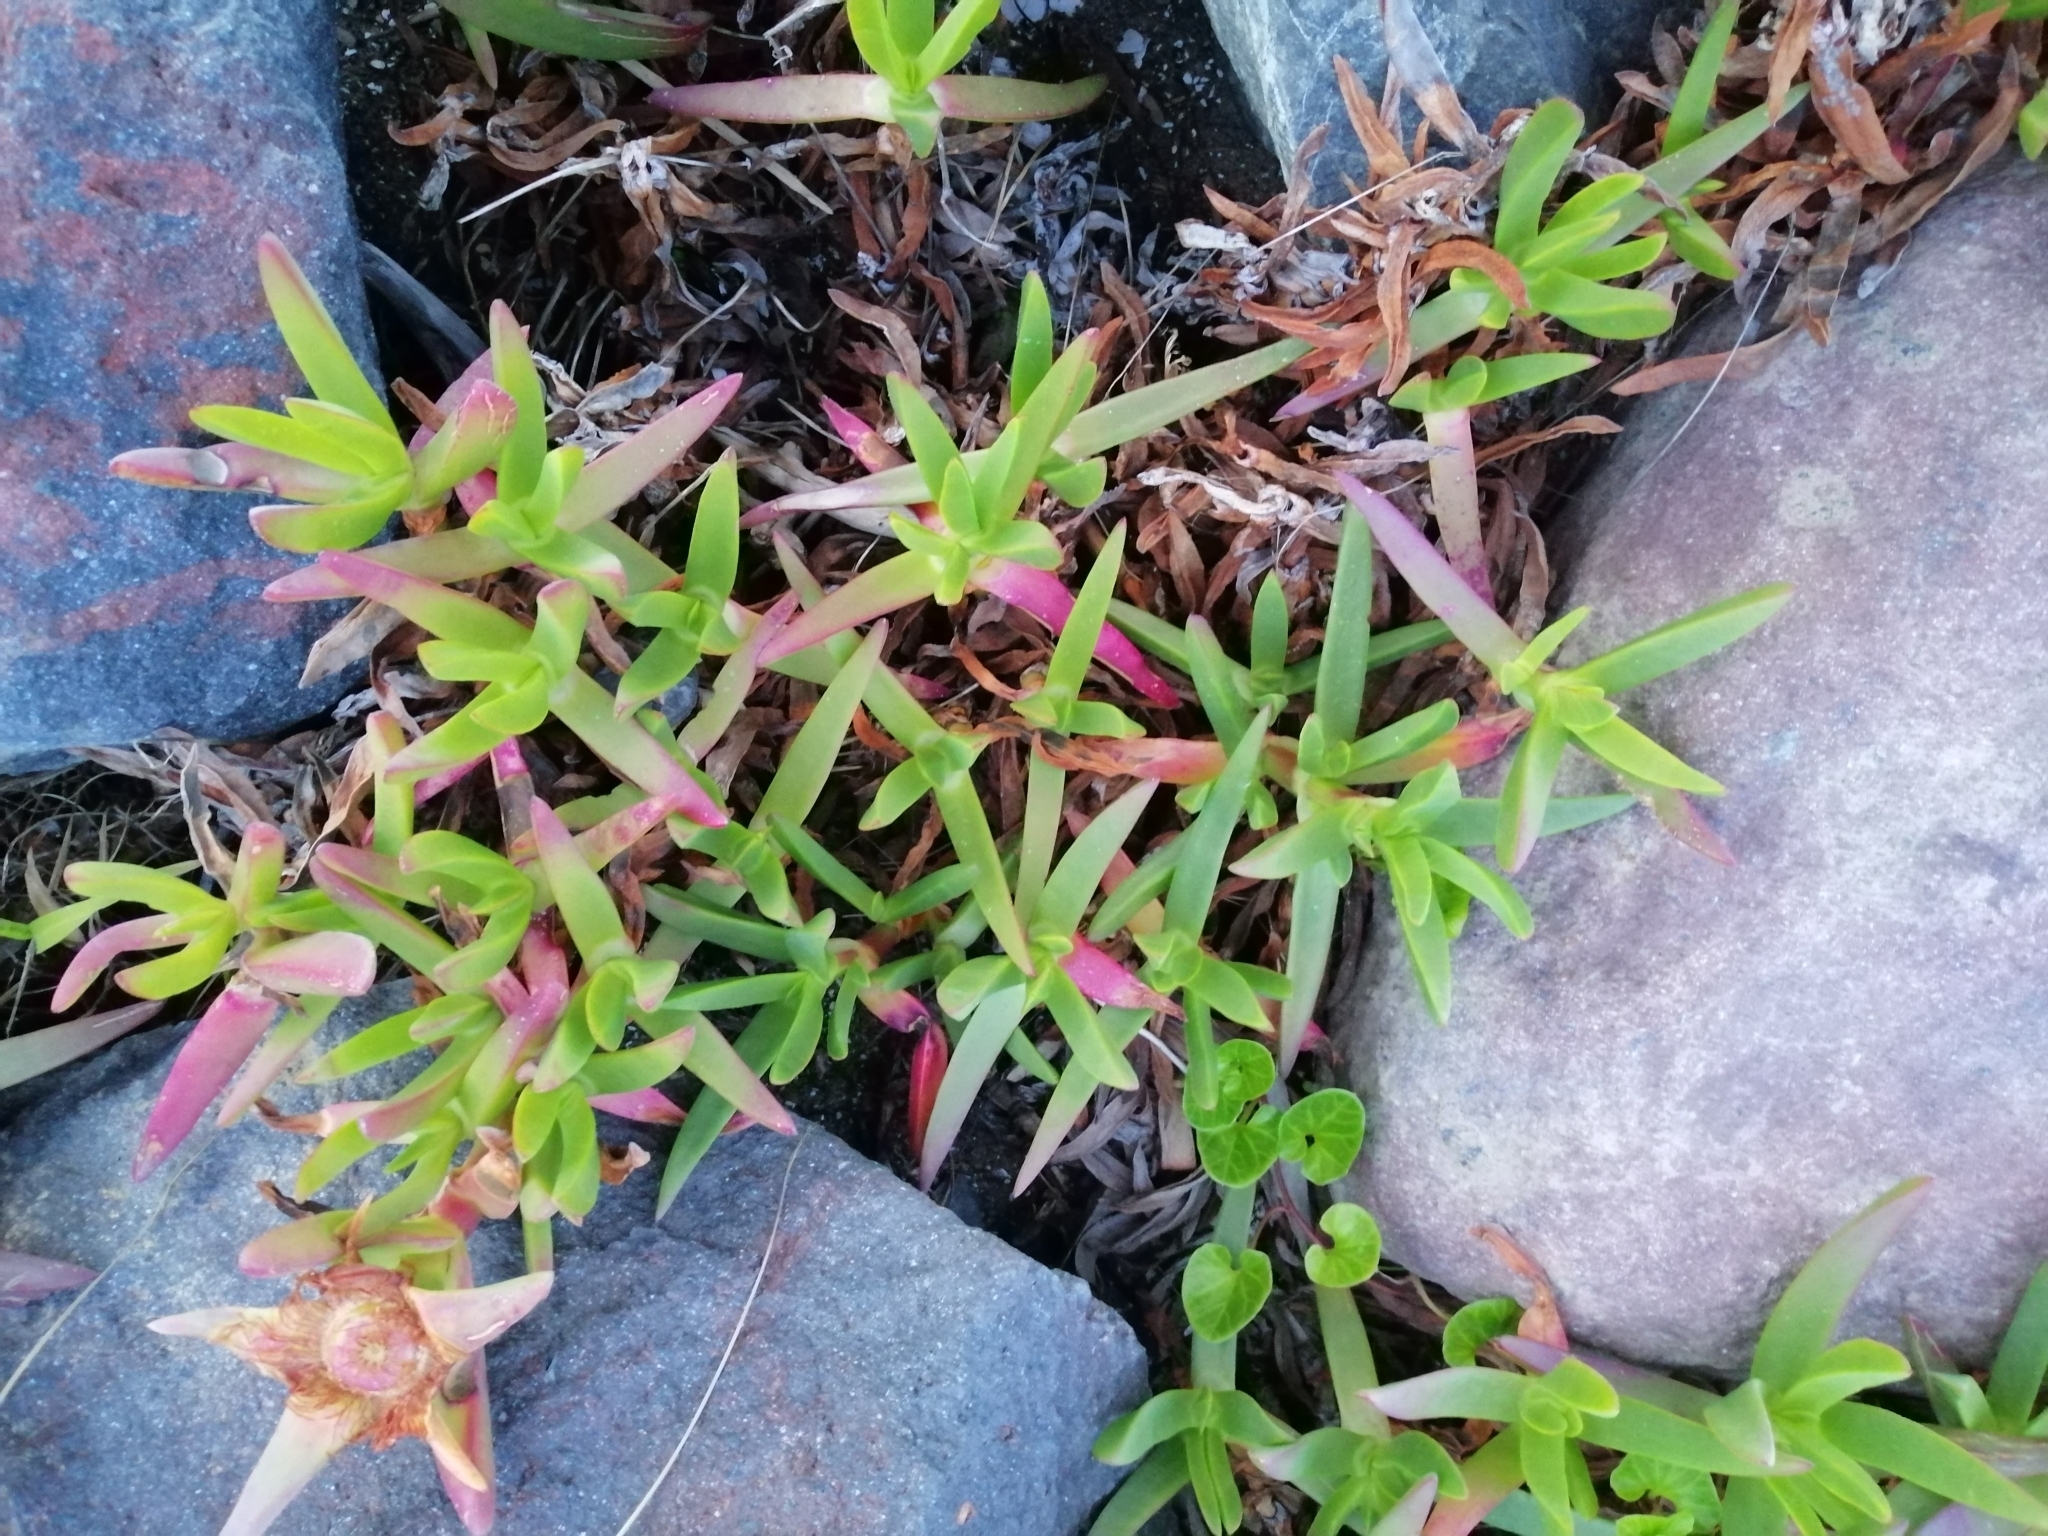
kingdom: Plantae
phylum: Tracheophyta
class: Magnoliopsida
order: Caryophyllales
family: Aizoaceae
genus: Carpobrotus
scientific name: Carpobrotus chilensis
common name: Sea fig
